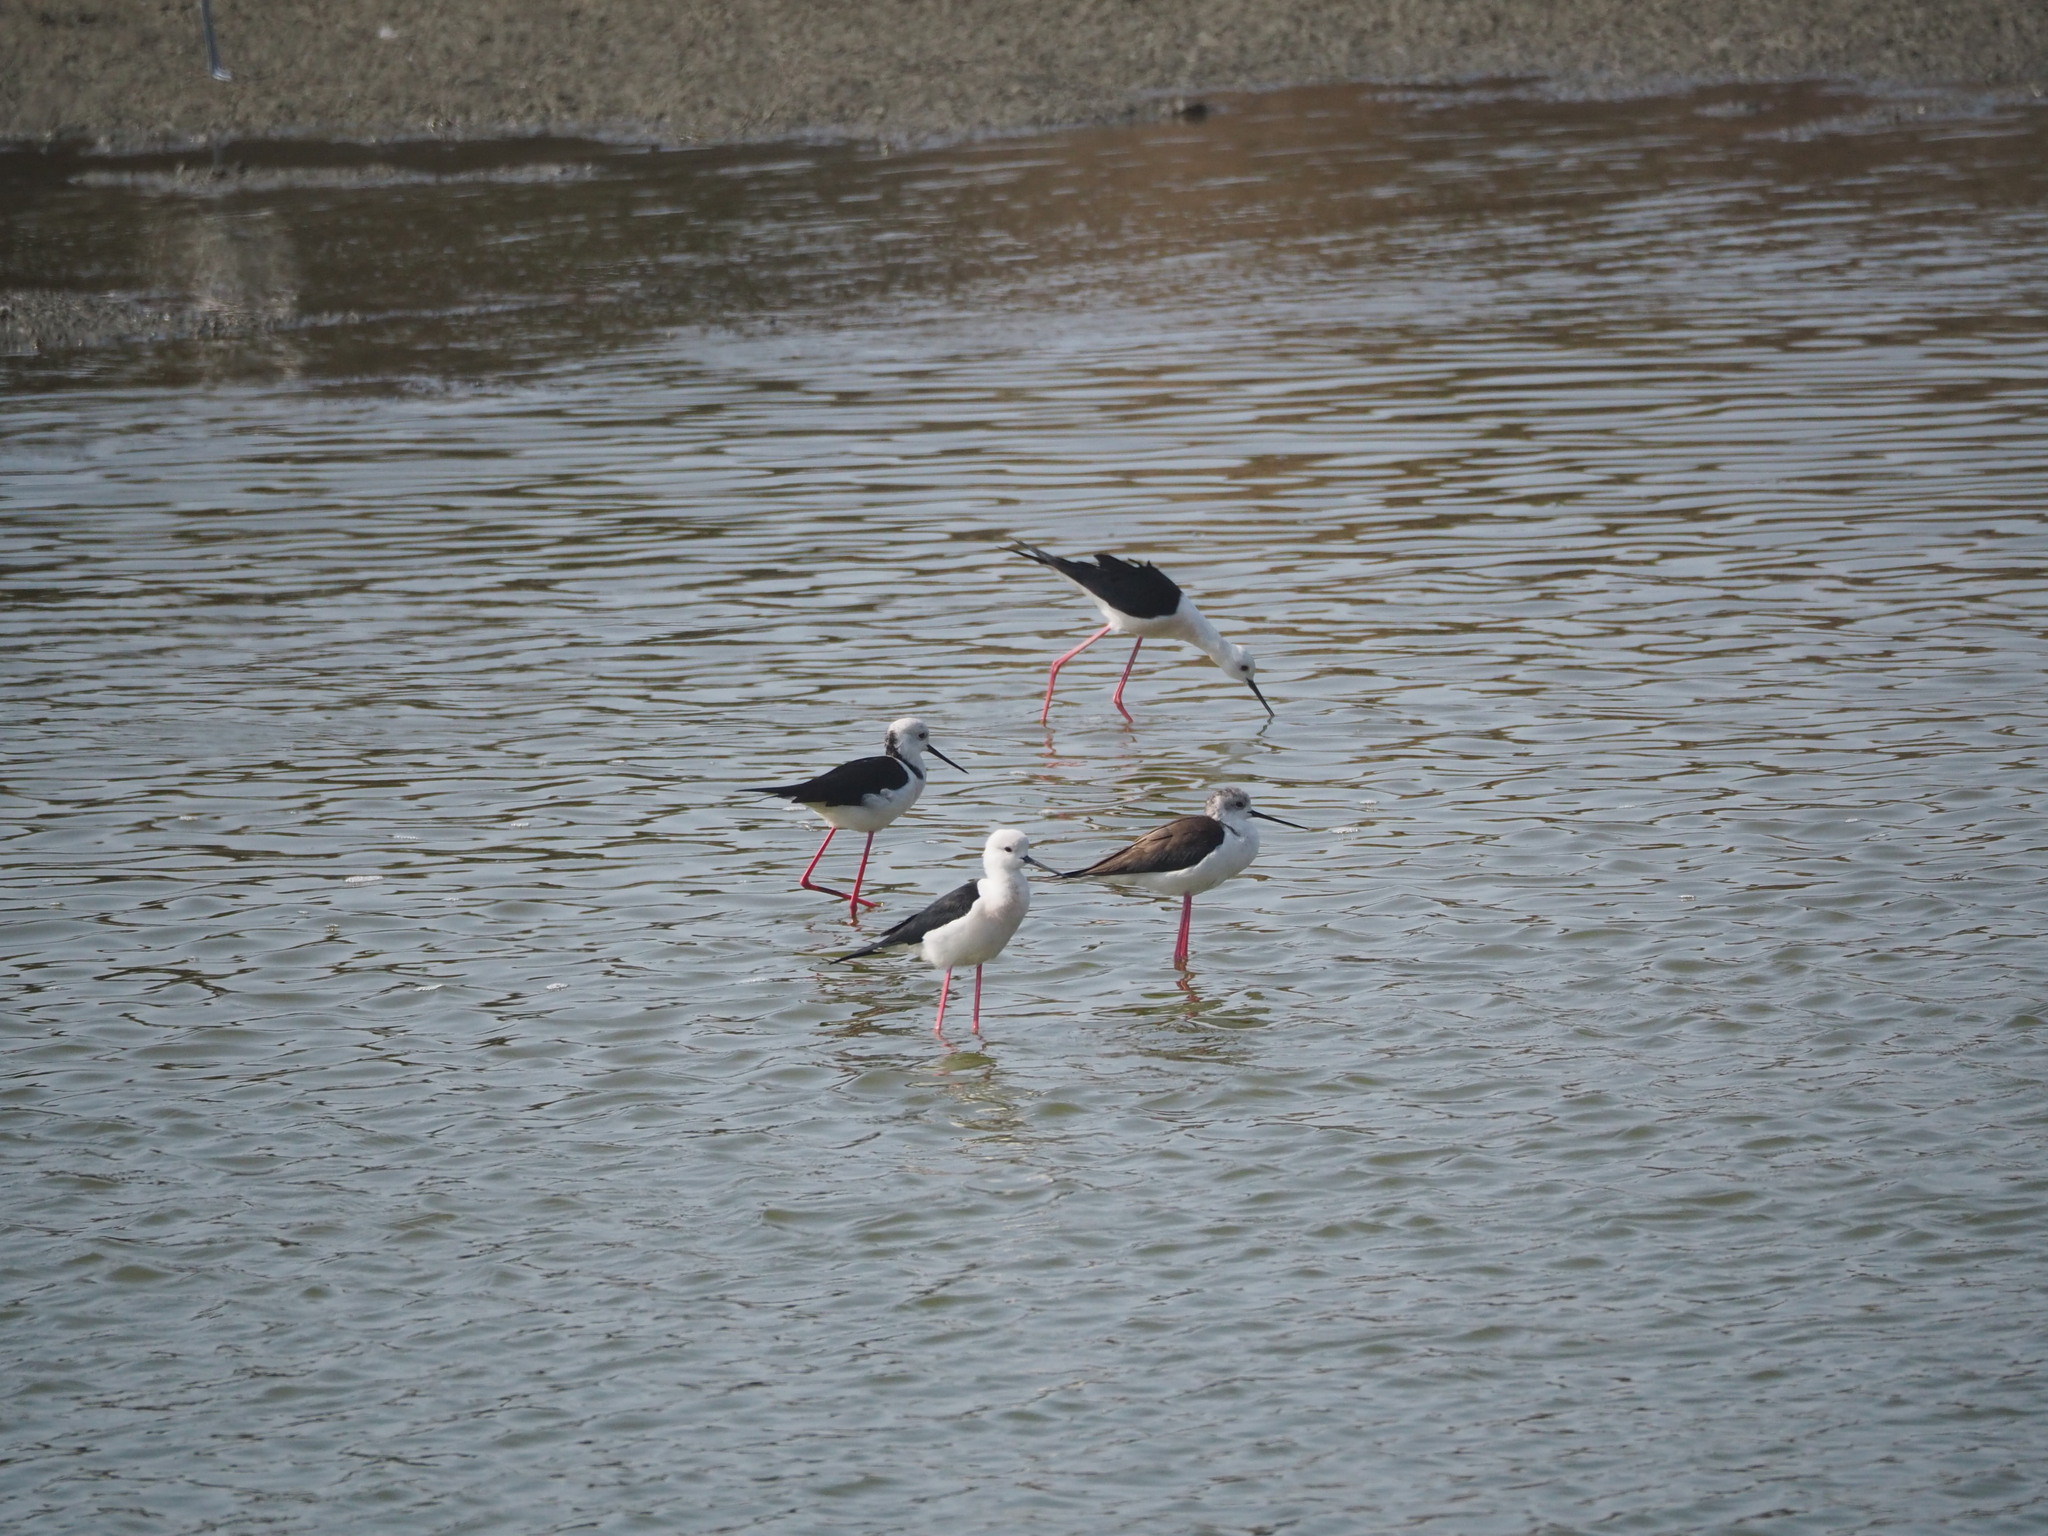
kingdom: Animalia
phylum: Chordata
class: Aves
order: Charadriiformes
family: Recurvirostridae
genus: Himantopus
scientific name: Himantopus himantopus
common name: Black-winged stilt
